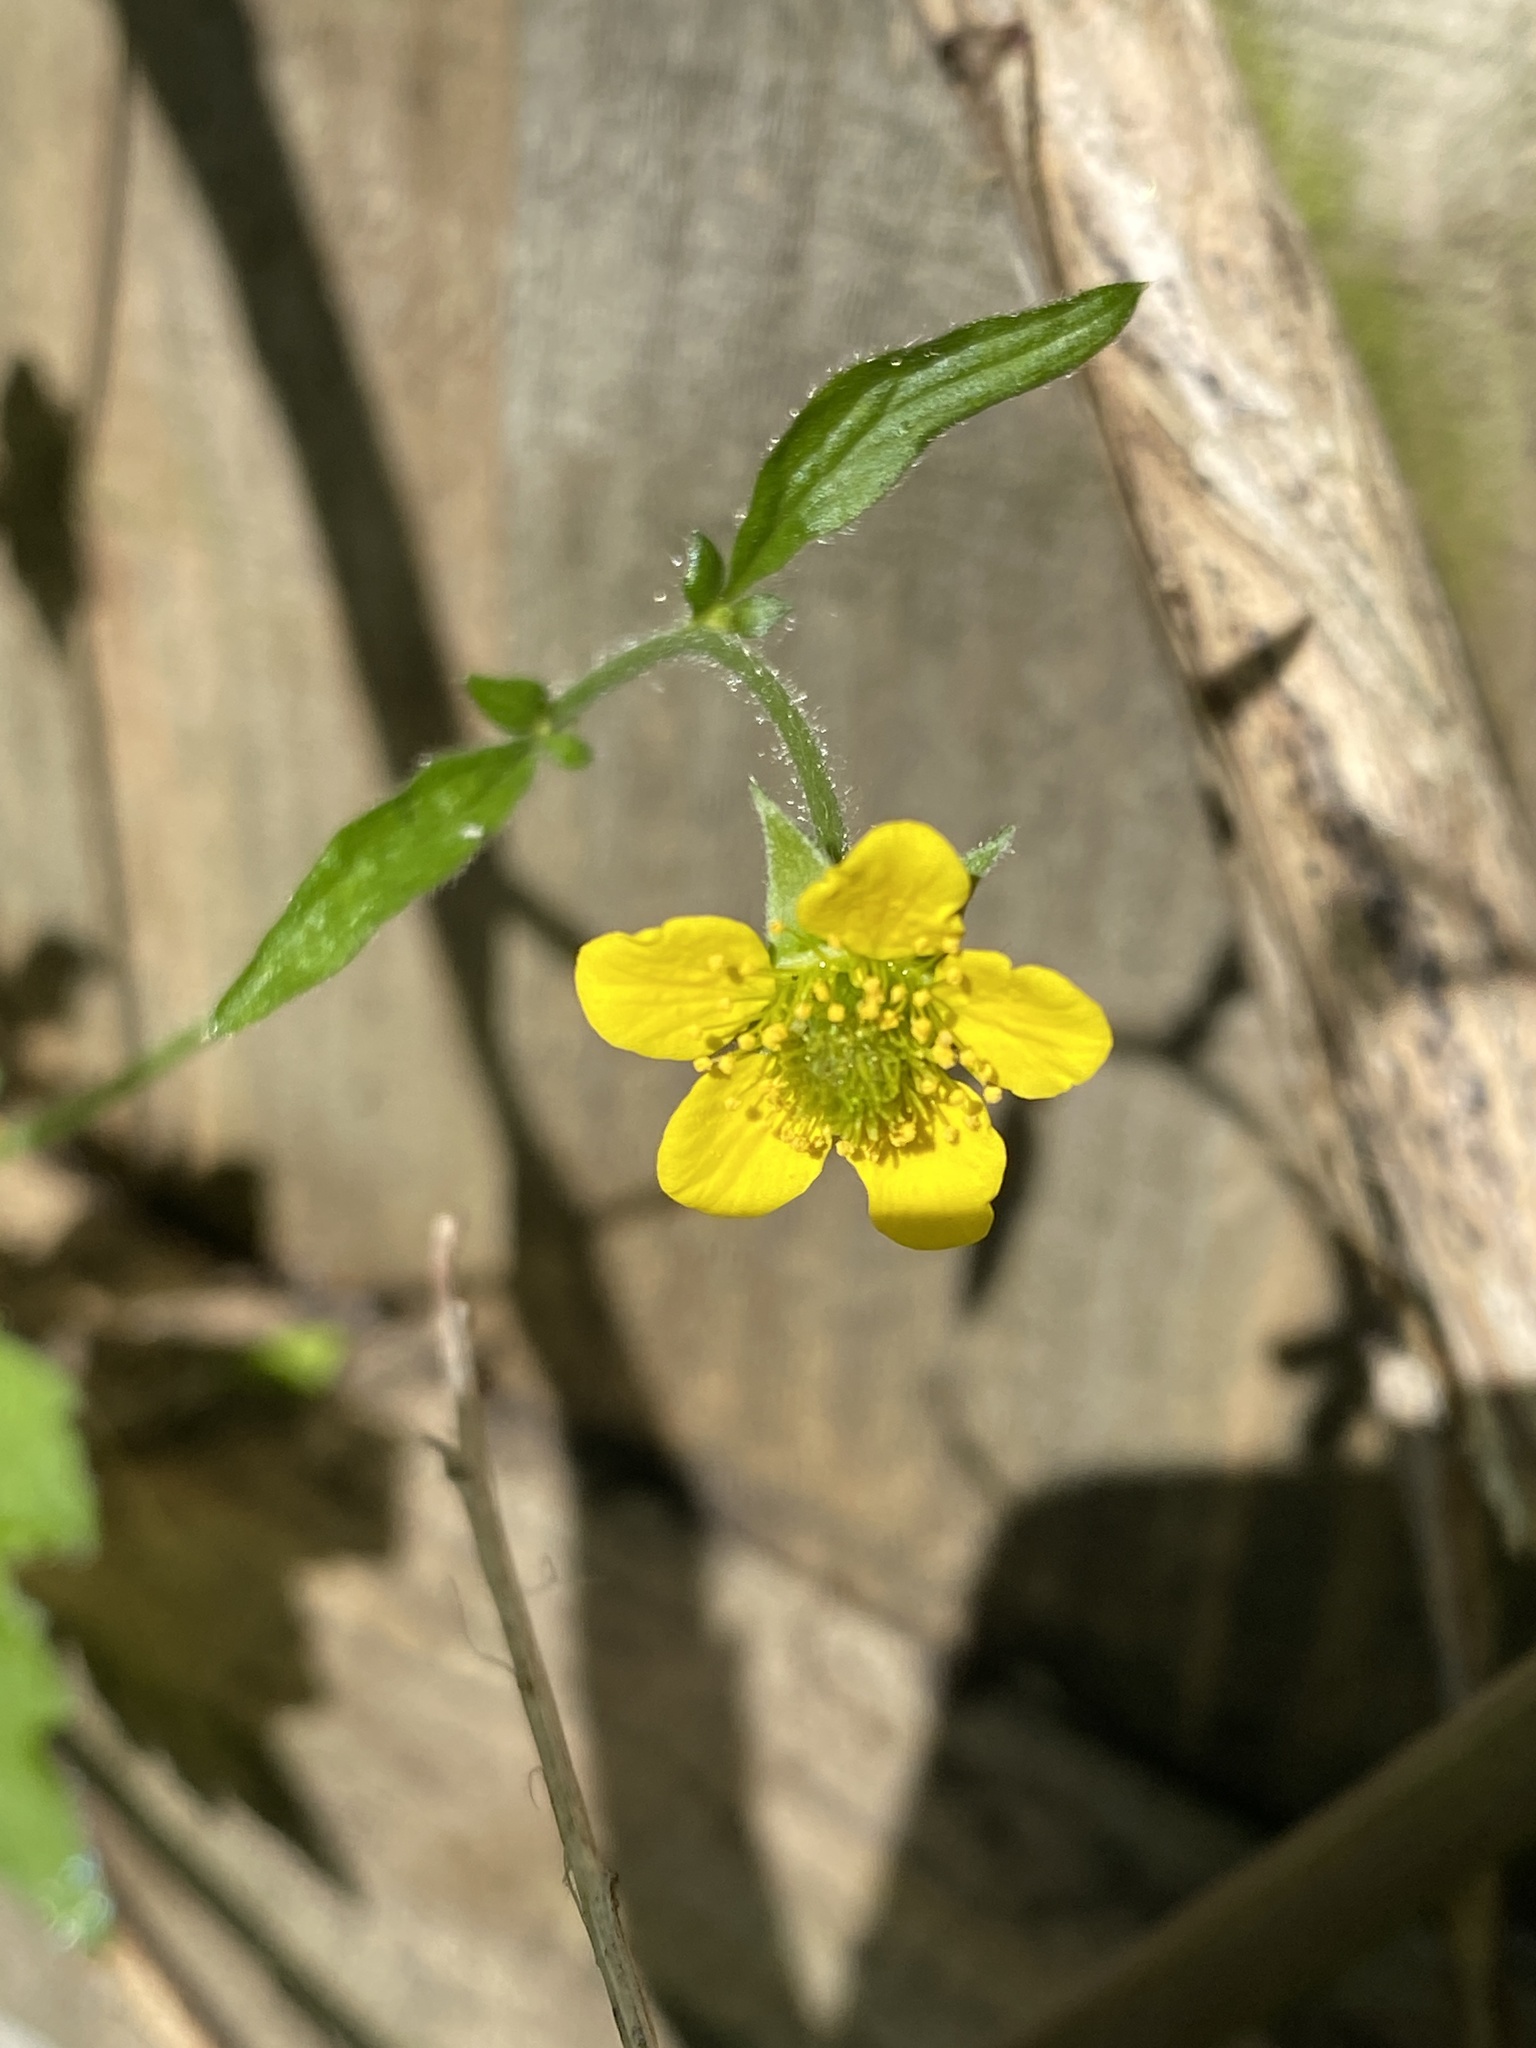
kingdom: Plantae
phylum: Tracheophyta
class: Magnoliopsida
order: Rosales
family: Rosaceae
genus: Geum
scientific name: Geum urbanum
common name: Wood avens
